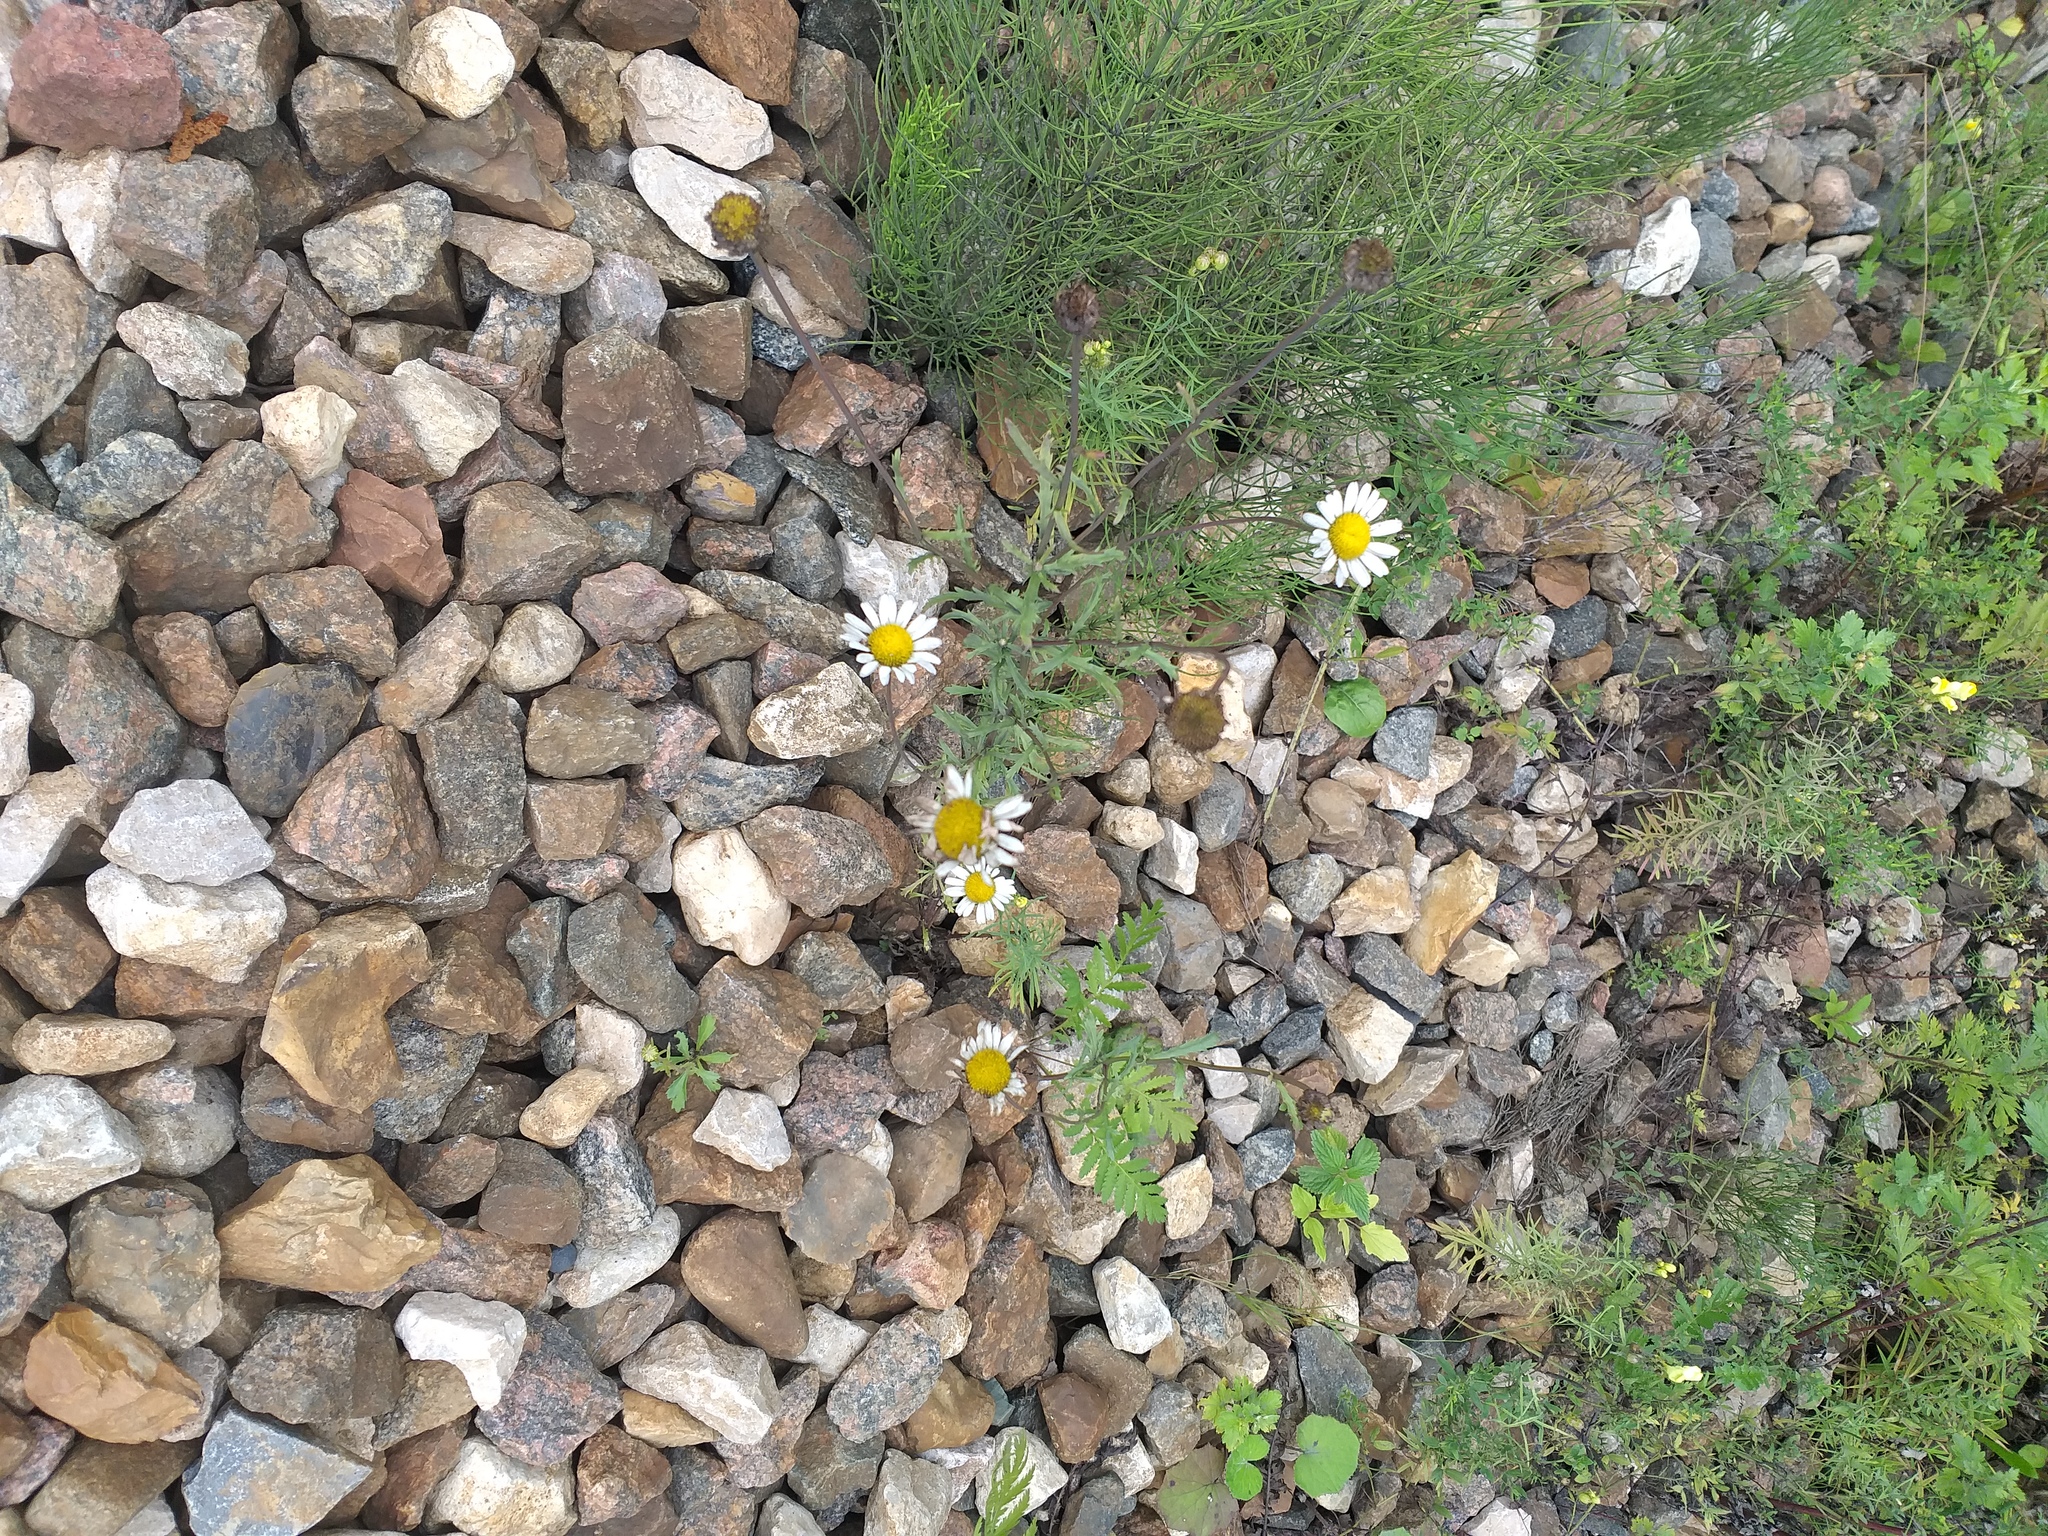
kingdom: Plantae
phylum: Tracheophyta
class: Magnoliopsida
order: Asterales
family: Asteraceae
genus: Leucanthemum
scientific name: Leucanthemum vulgare
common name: Oxeye daisy
